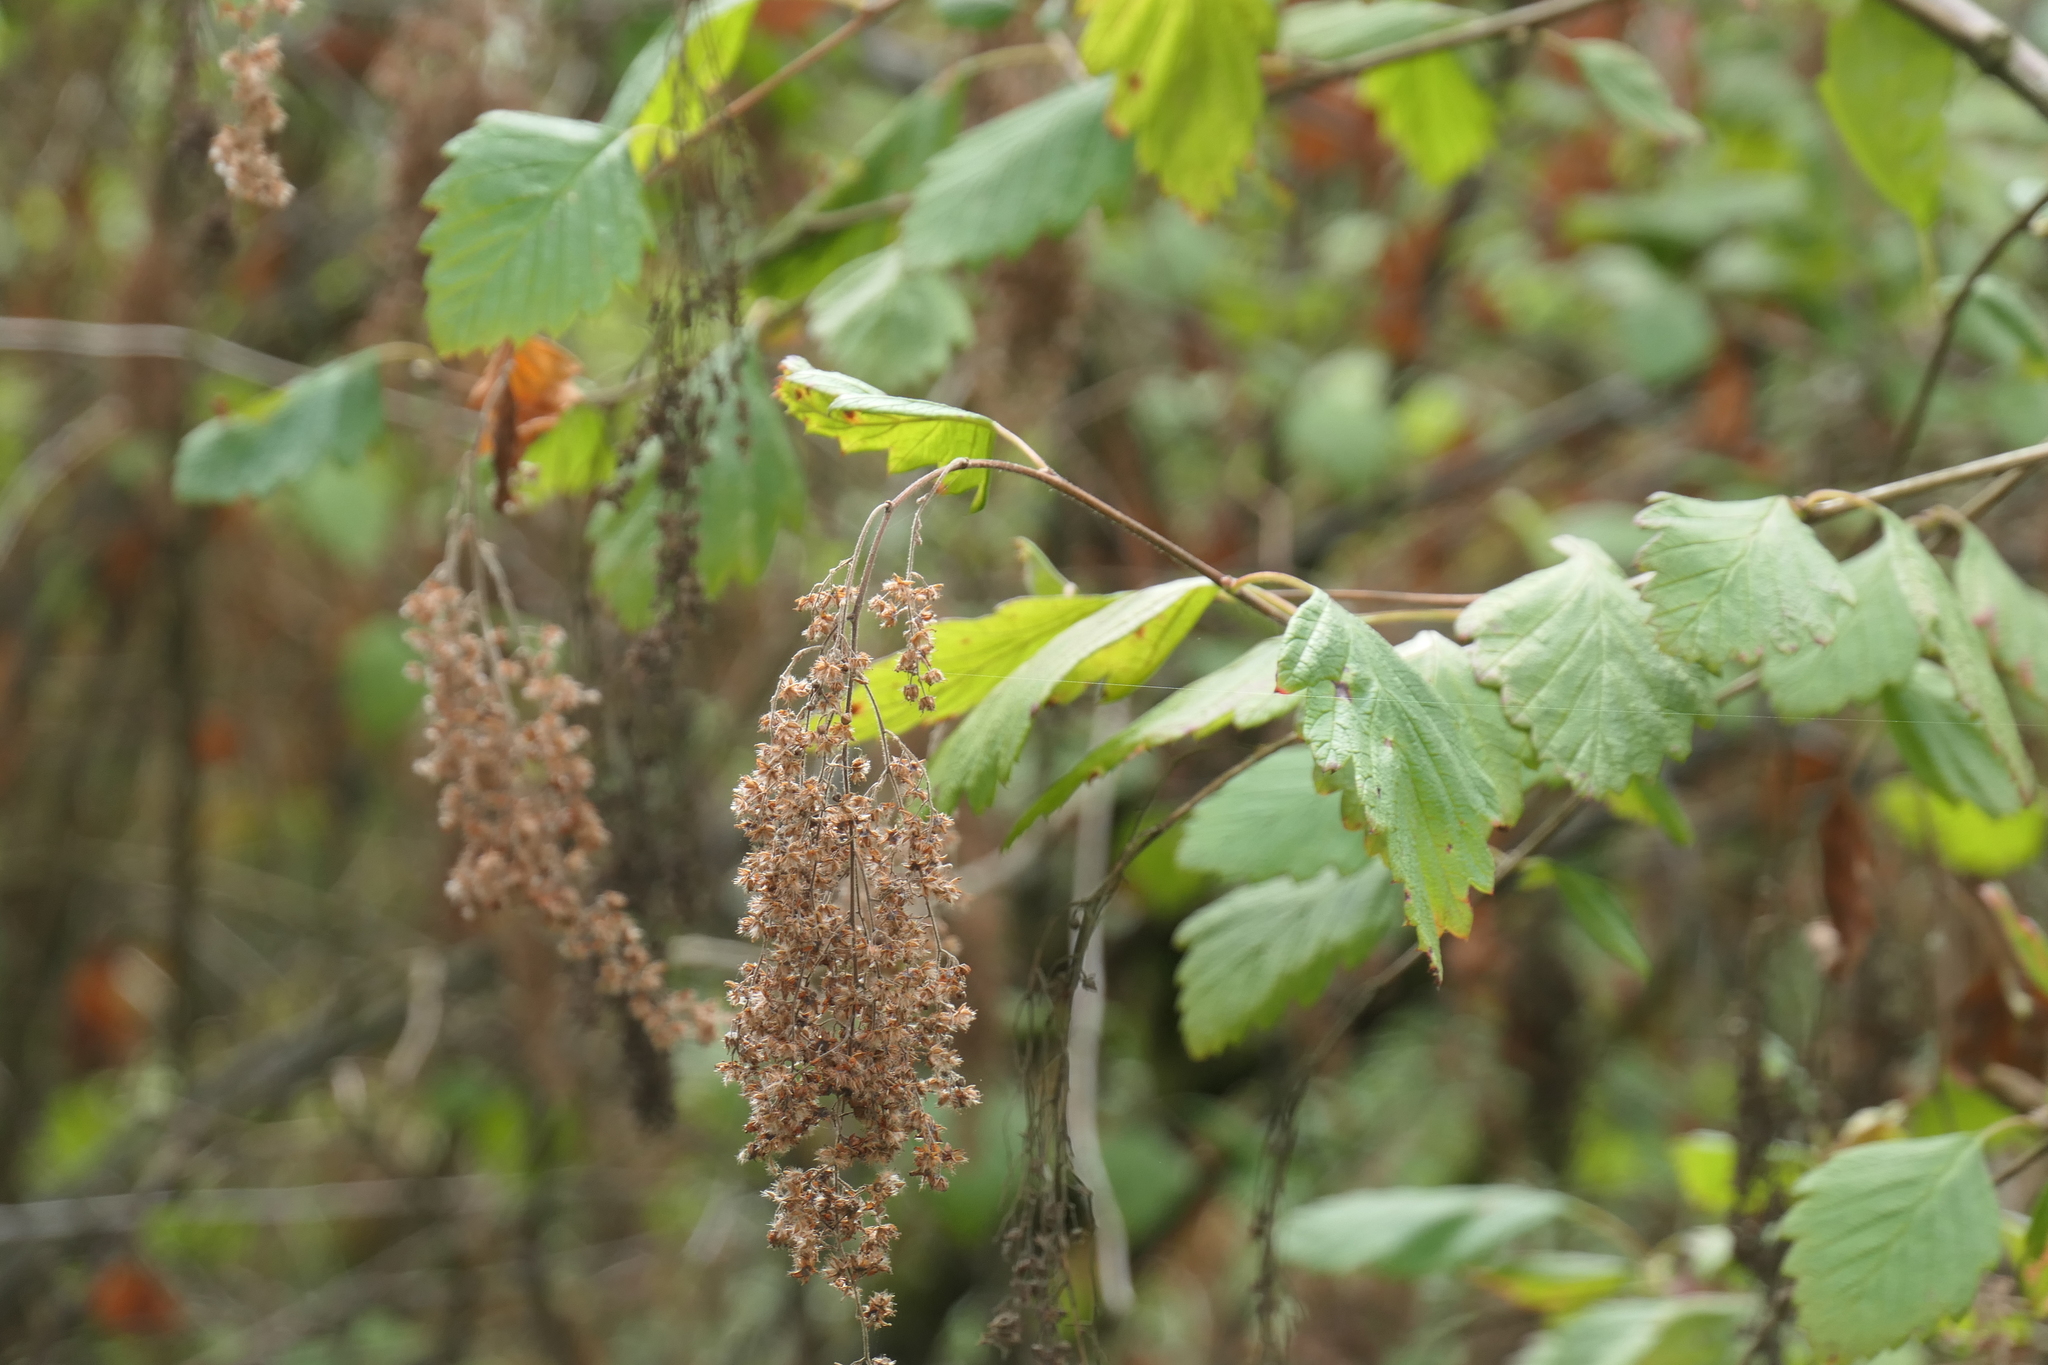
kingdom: Plantae
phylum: Tracheophyta
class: Magnoliopsida
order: Rosales
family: Rosaceae
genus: Holodiscus
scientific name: Holodiscus discolor
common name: Oceanspray
